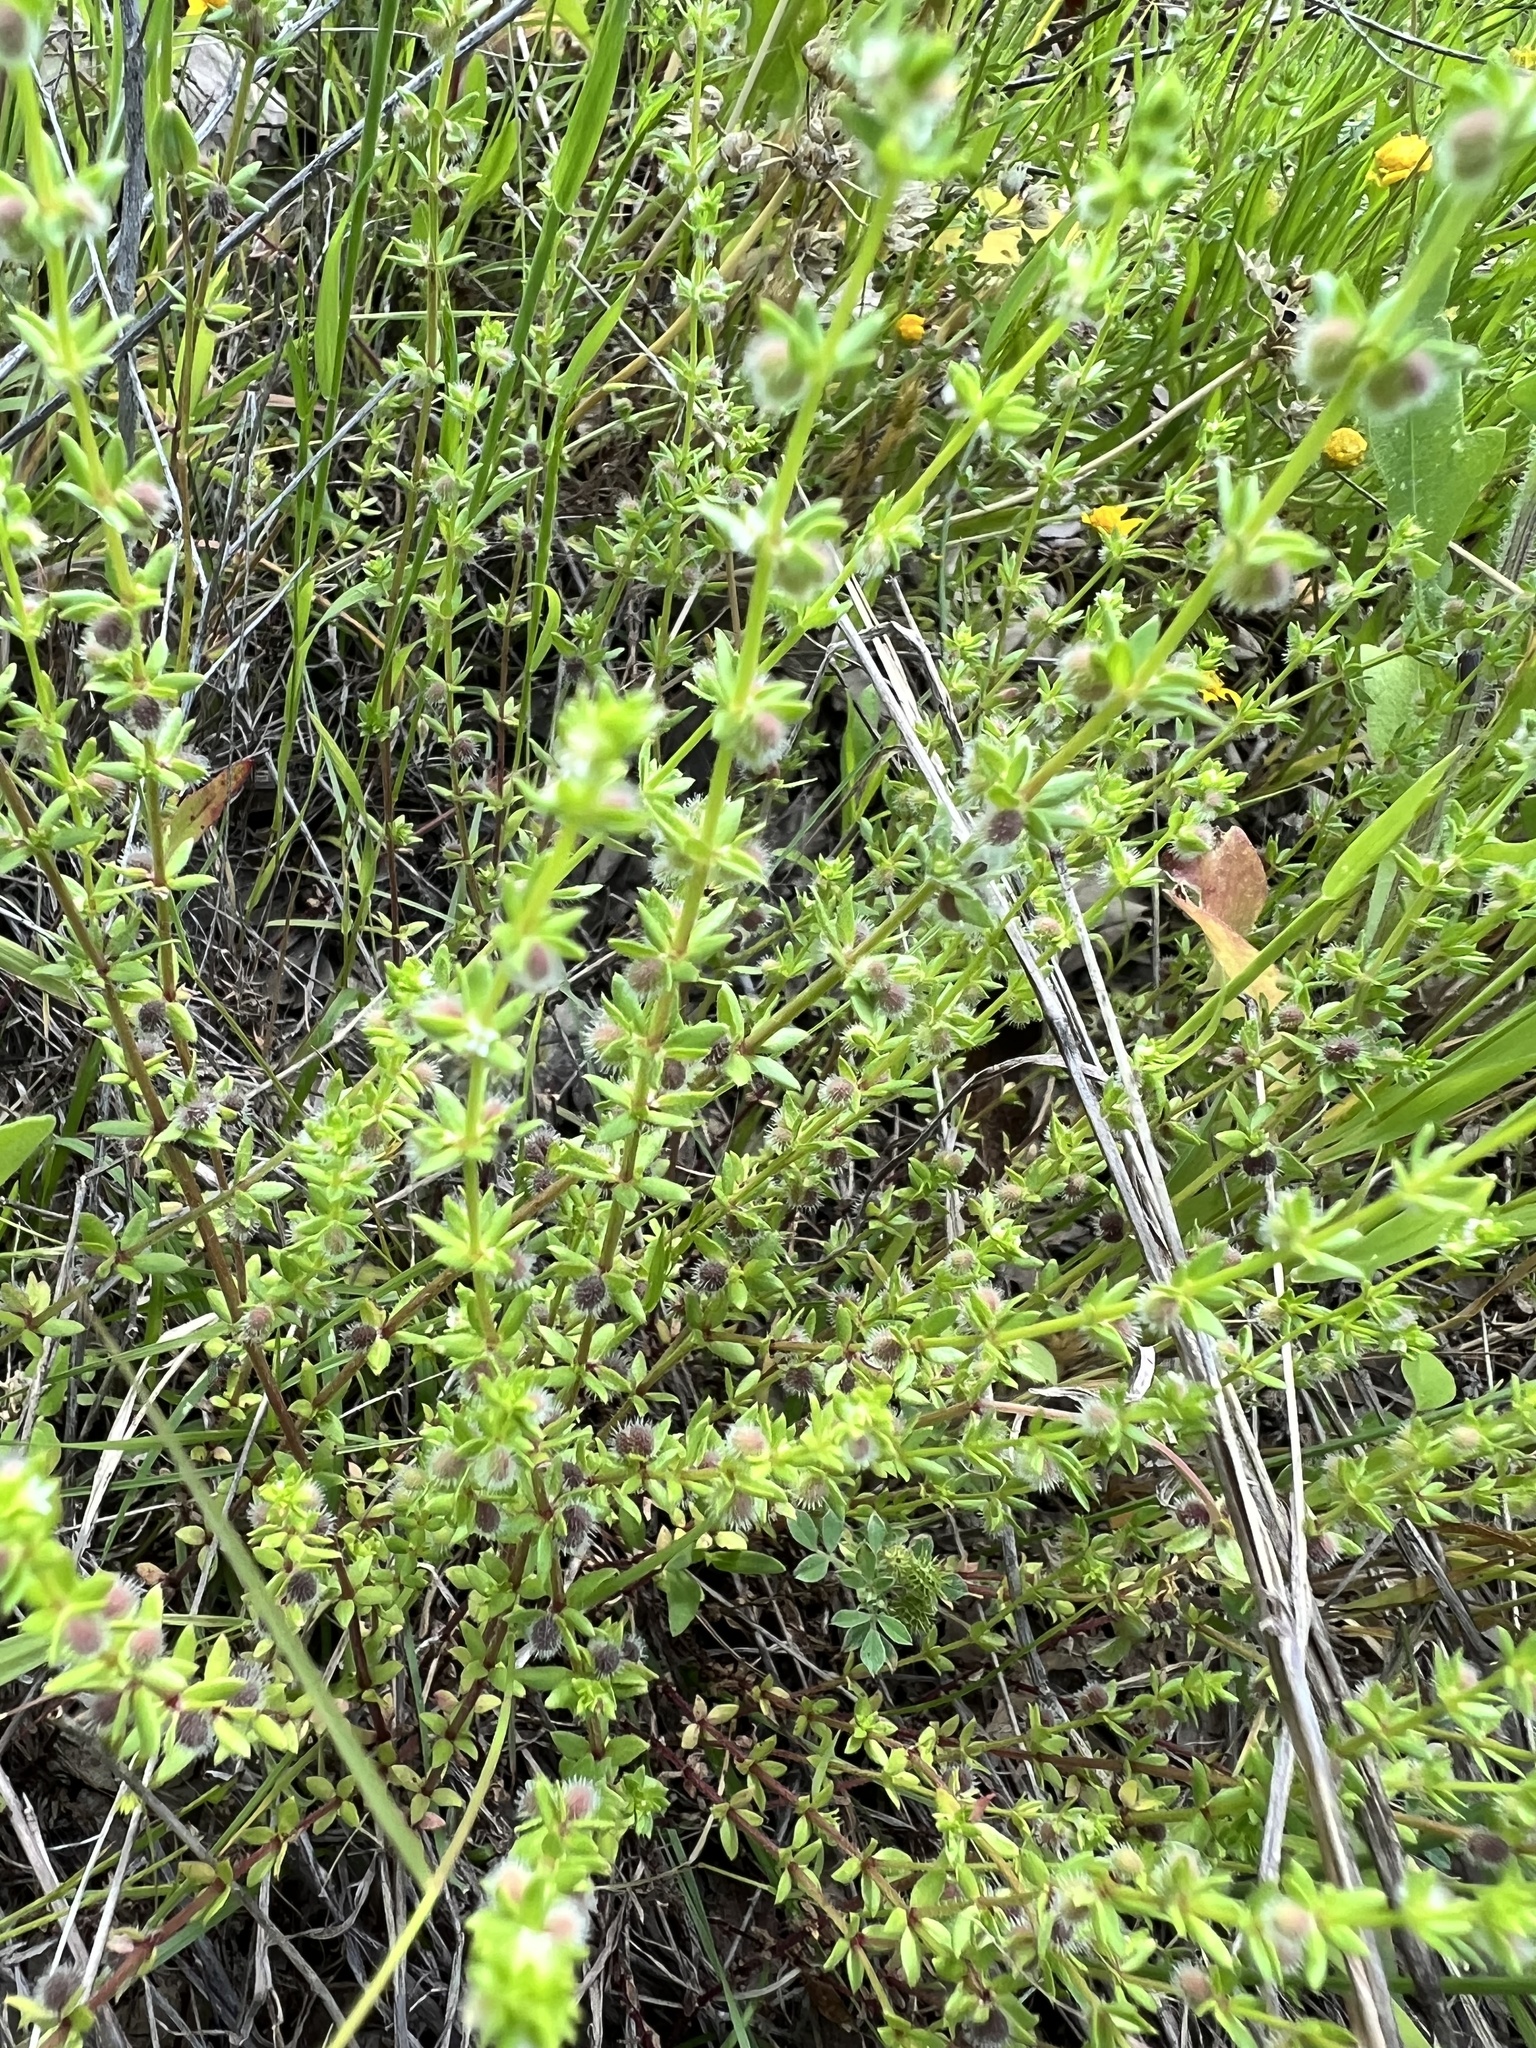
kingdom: Plantae
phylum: Tracheophyta
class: Magnoliopsida
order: Gentianales
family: Rubiaceae
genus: Galium
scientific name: Galium virgatum
